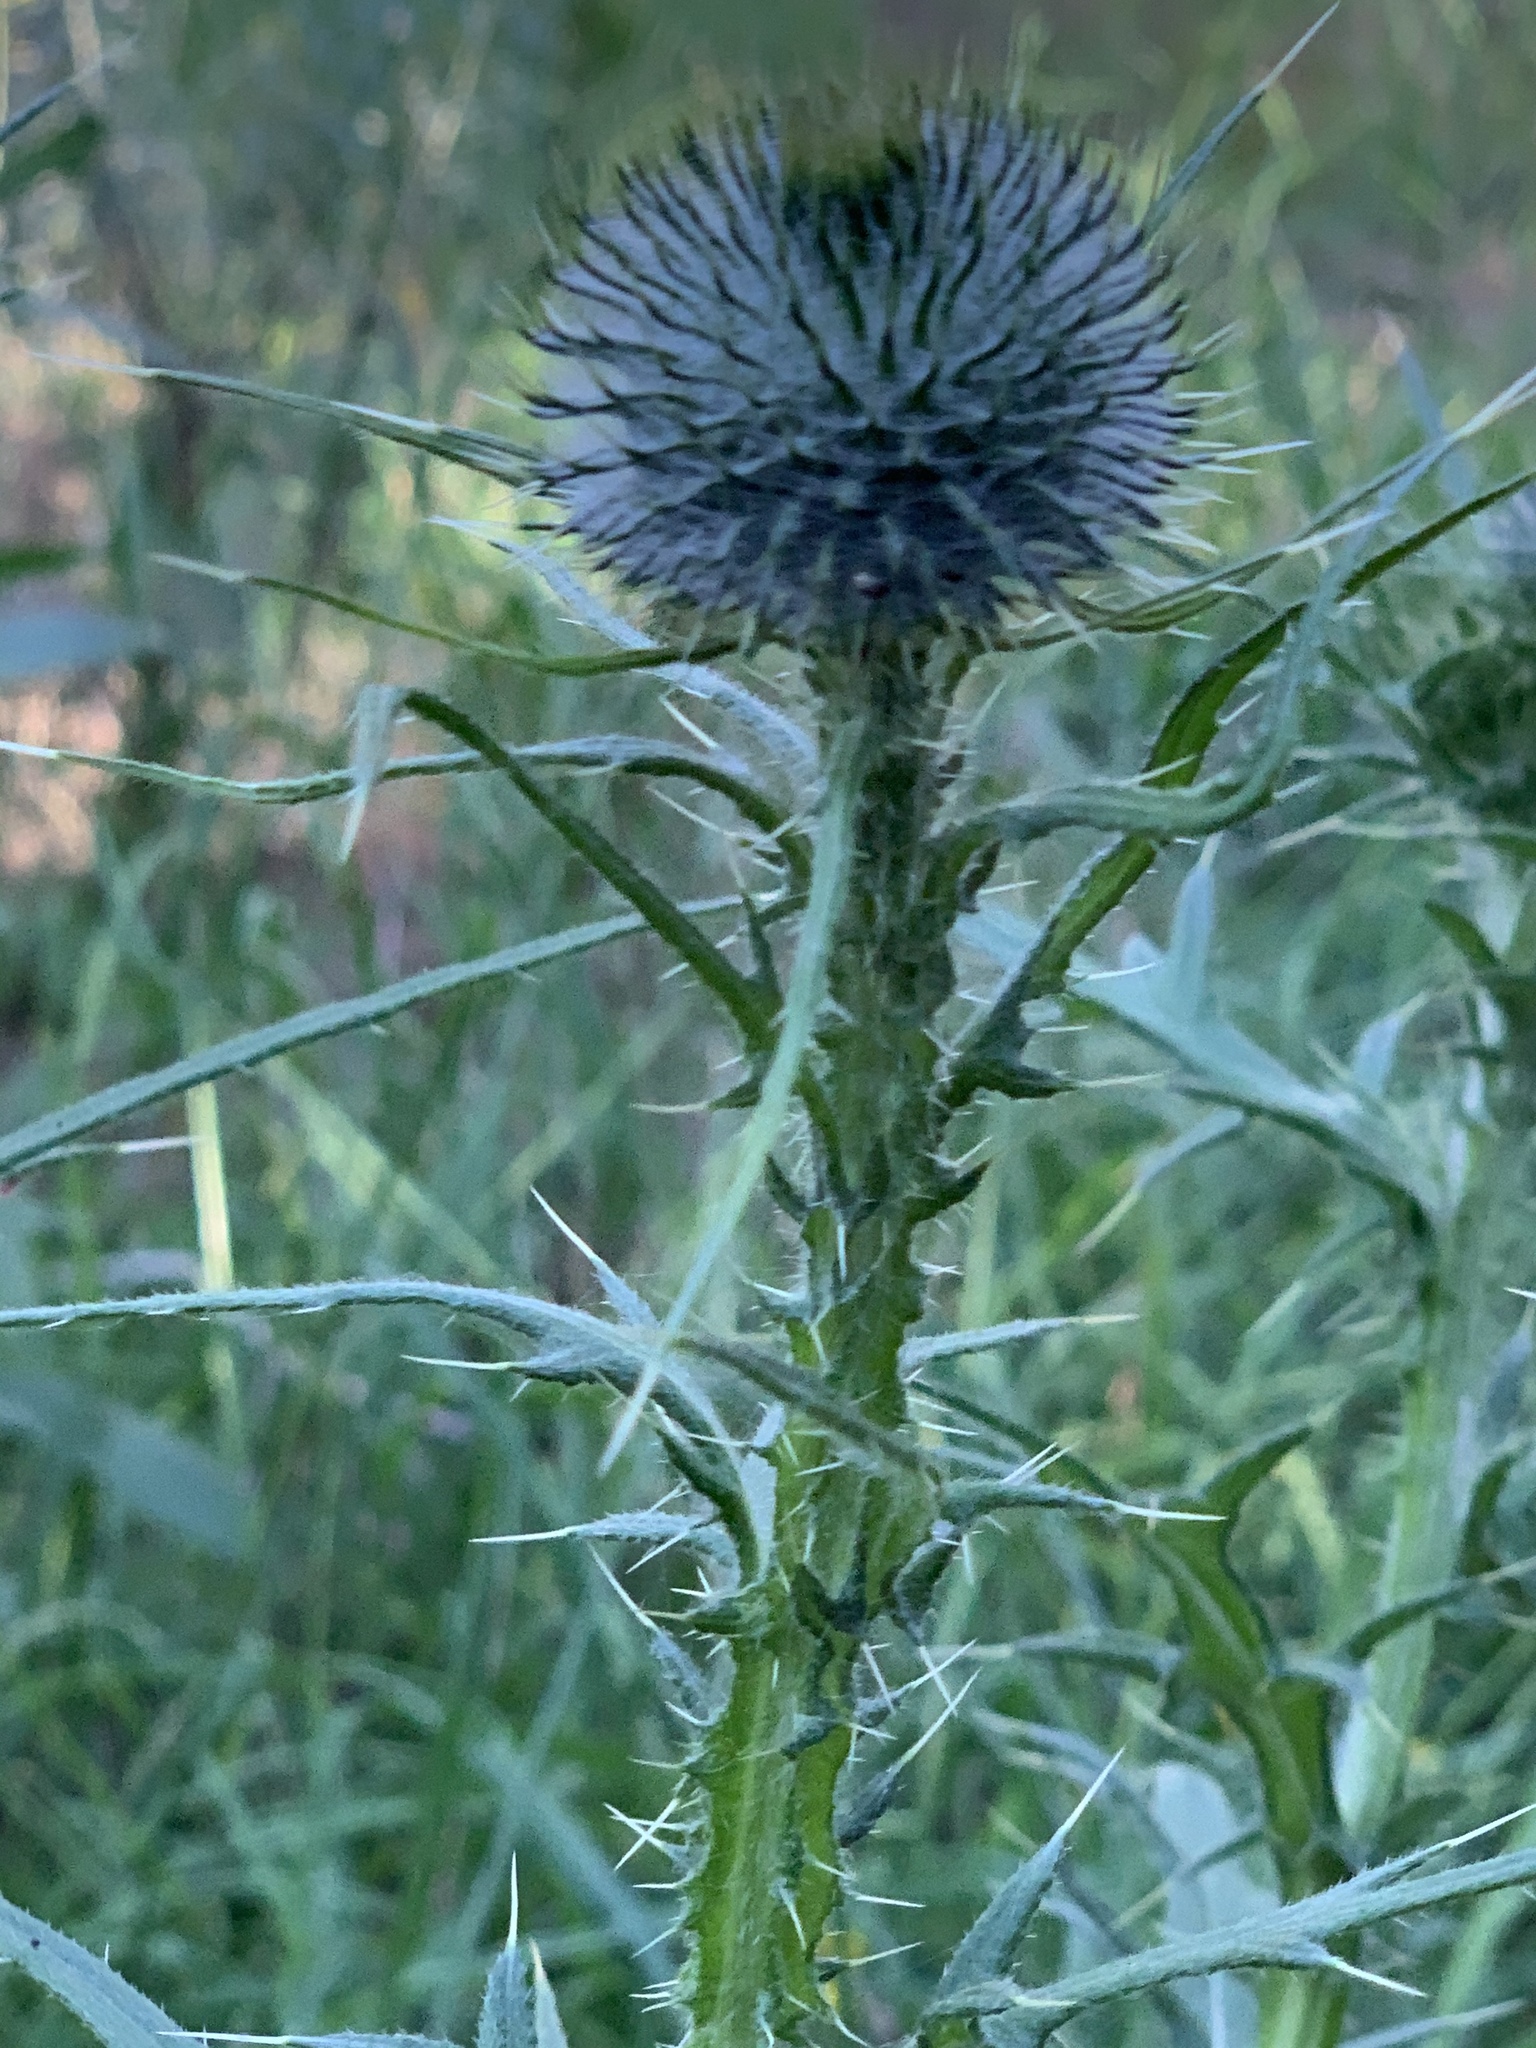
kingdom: Plantae
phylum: Tracheophyta
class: Magnoliopsida
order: Asterales
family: Asteraceae
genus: Cirsium
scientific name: Cirsium vulgare
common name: Bull thistle
